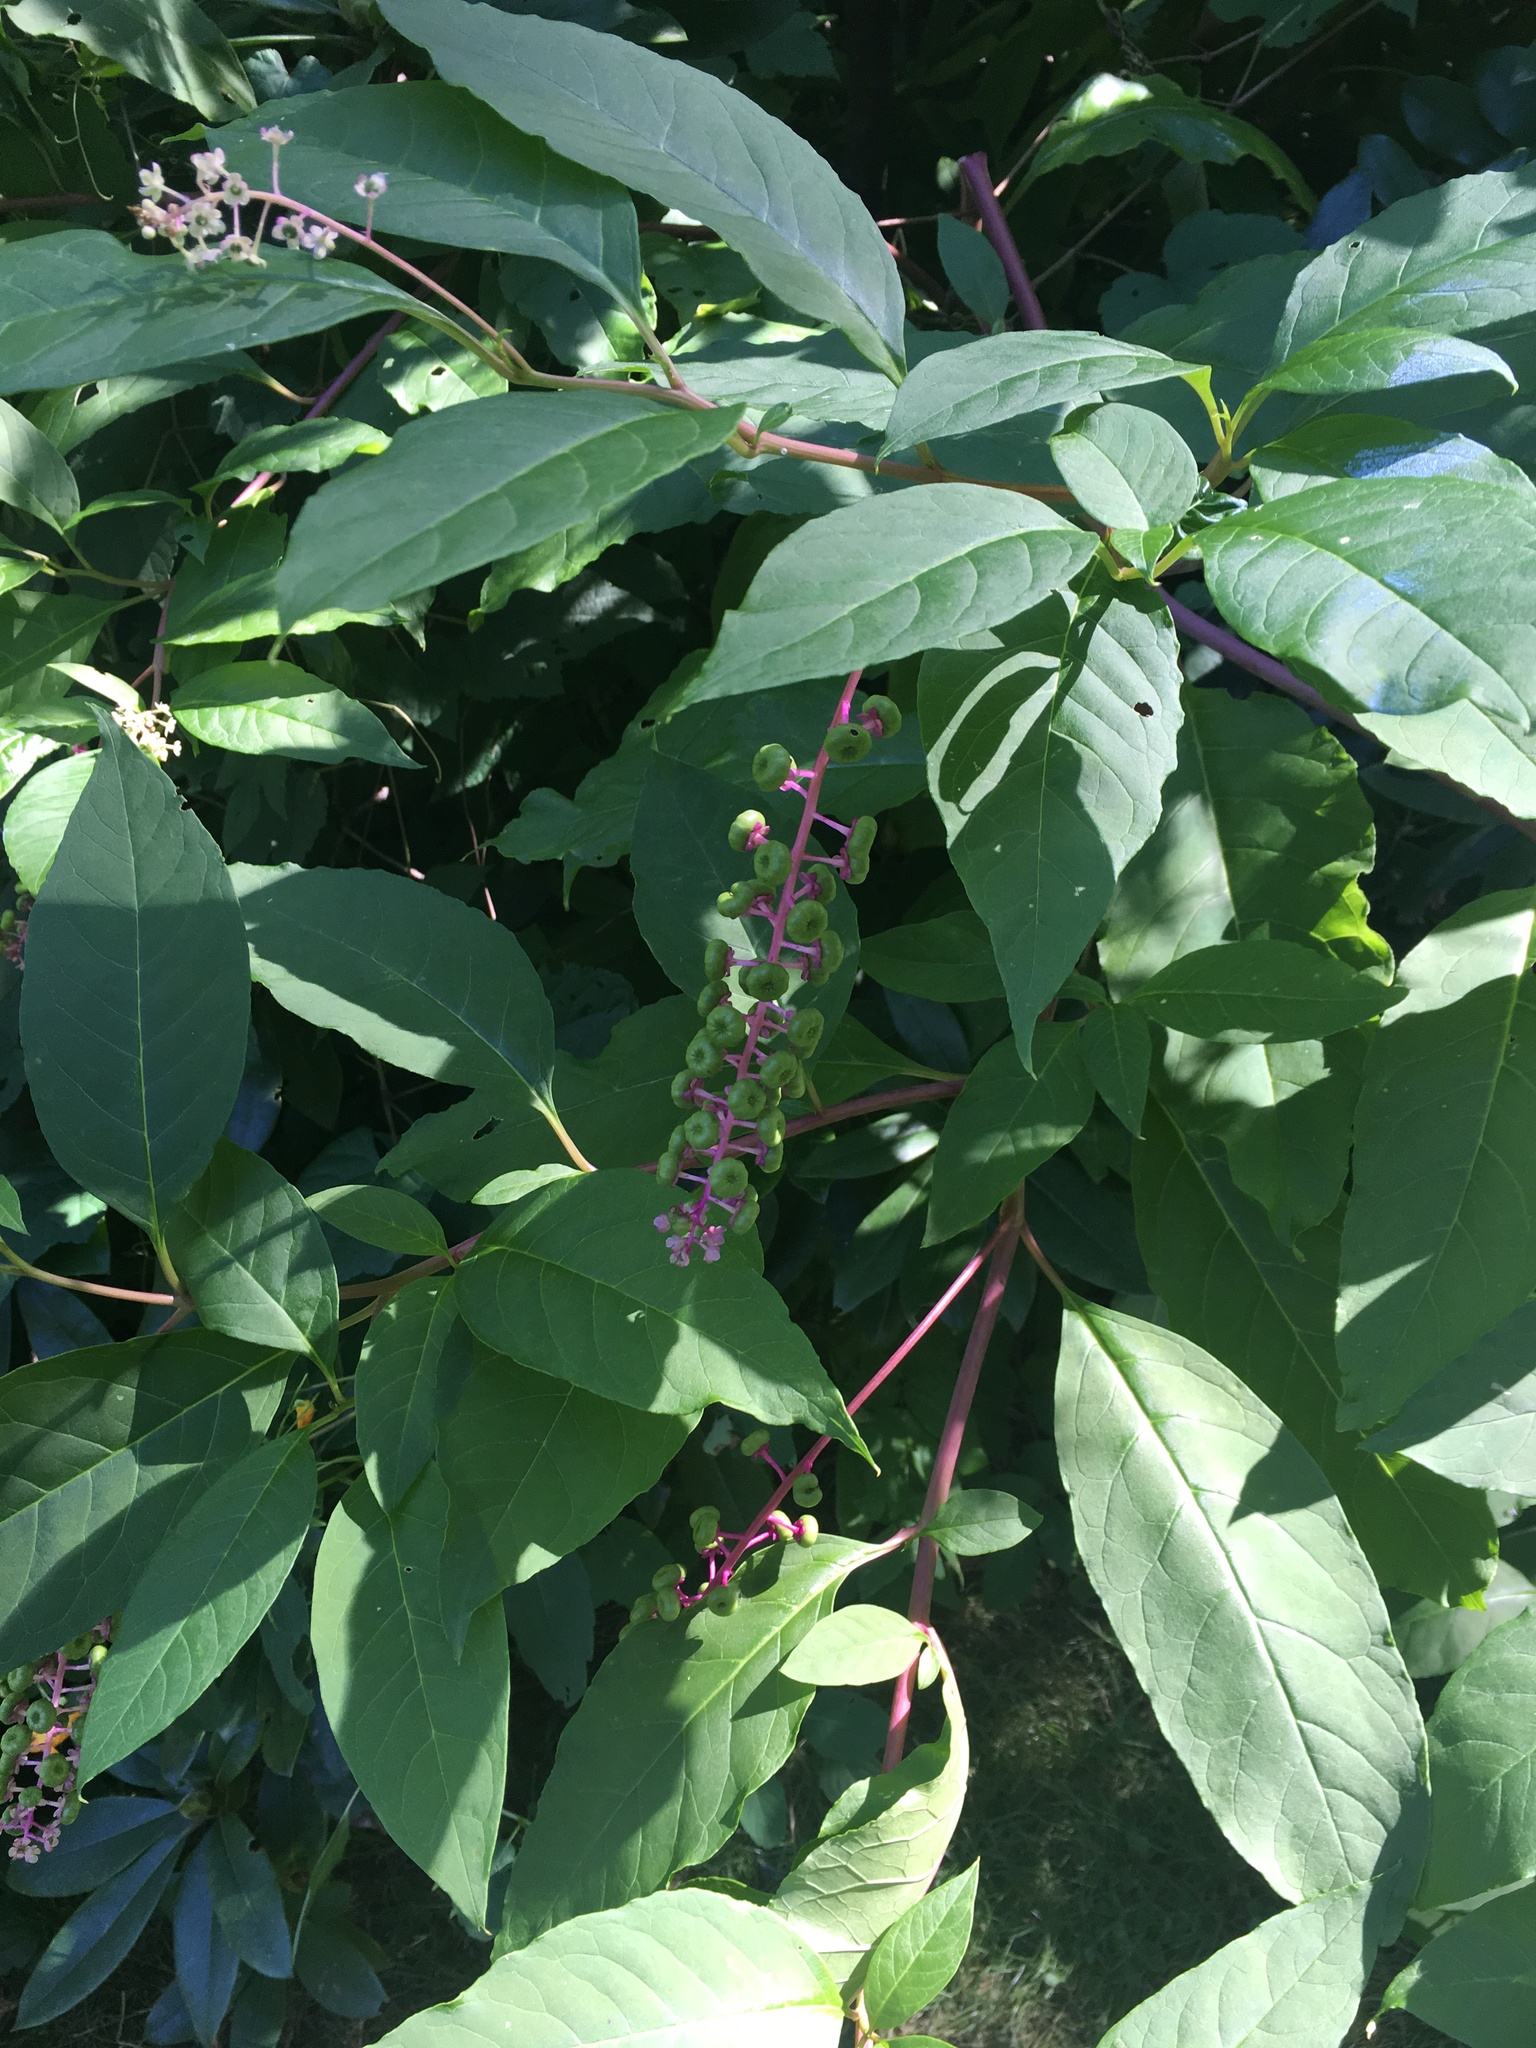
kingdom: Plantae
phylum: Tracheophyta
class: Magnoliopsida
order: Caryophyllales
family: Phytolaccaceae
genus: Phytolacca
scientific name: Phytolacca americana
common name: American pokeweed
